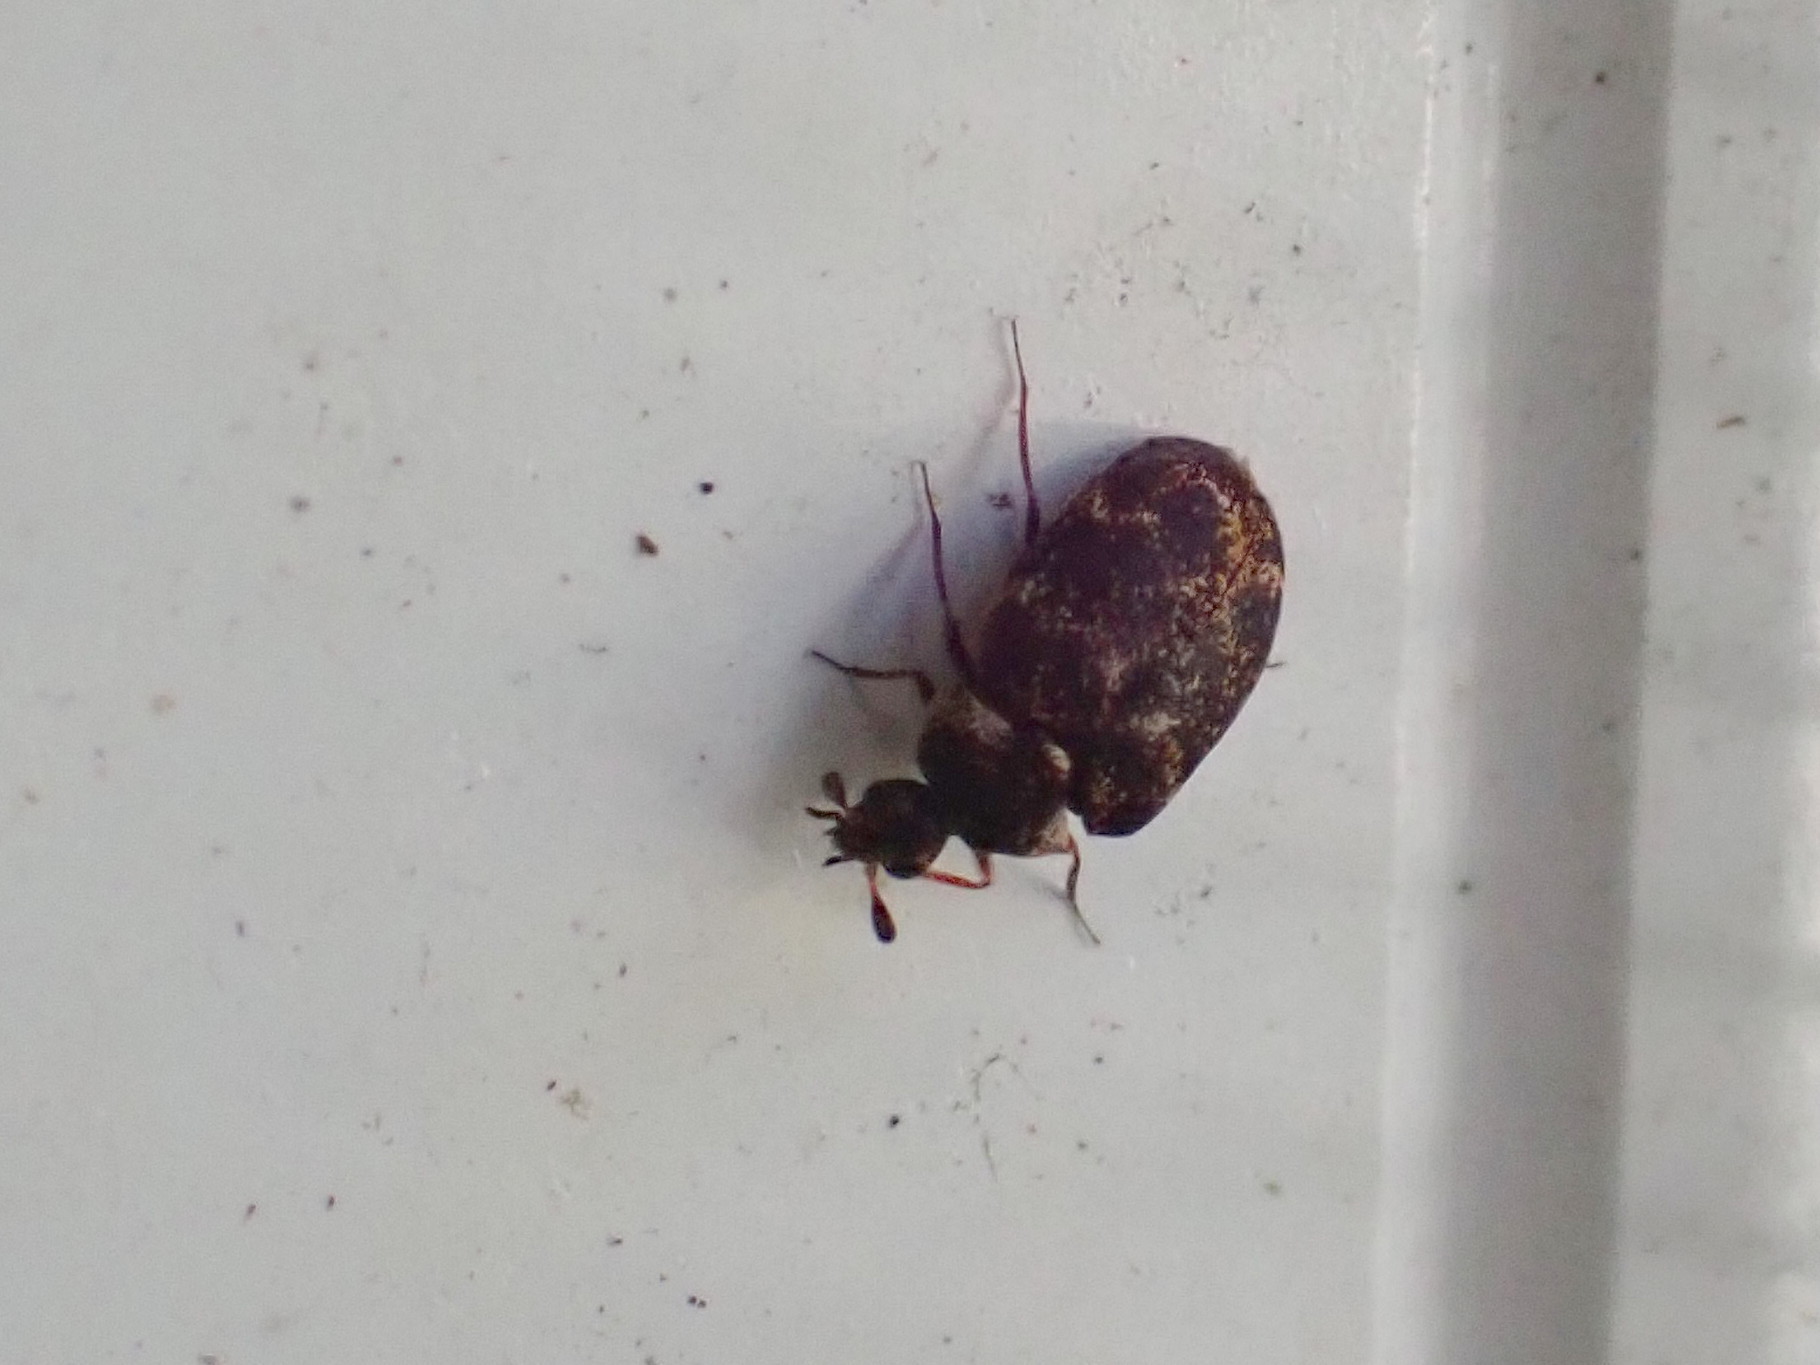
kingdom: Animalia
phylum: Arthropoda
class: Insecta
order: Coleoptera
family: Dermestidae
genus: Anthrenus
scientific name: Anthrenus museorum
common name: Museum beetle
